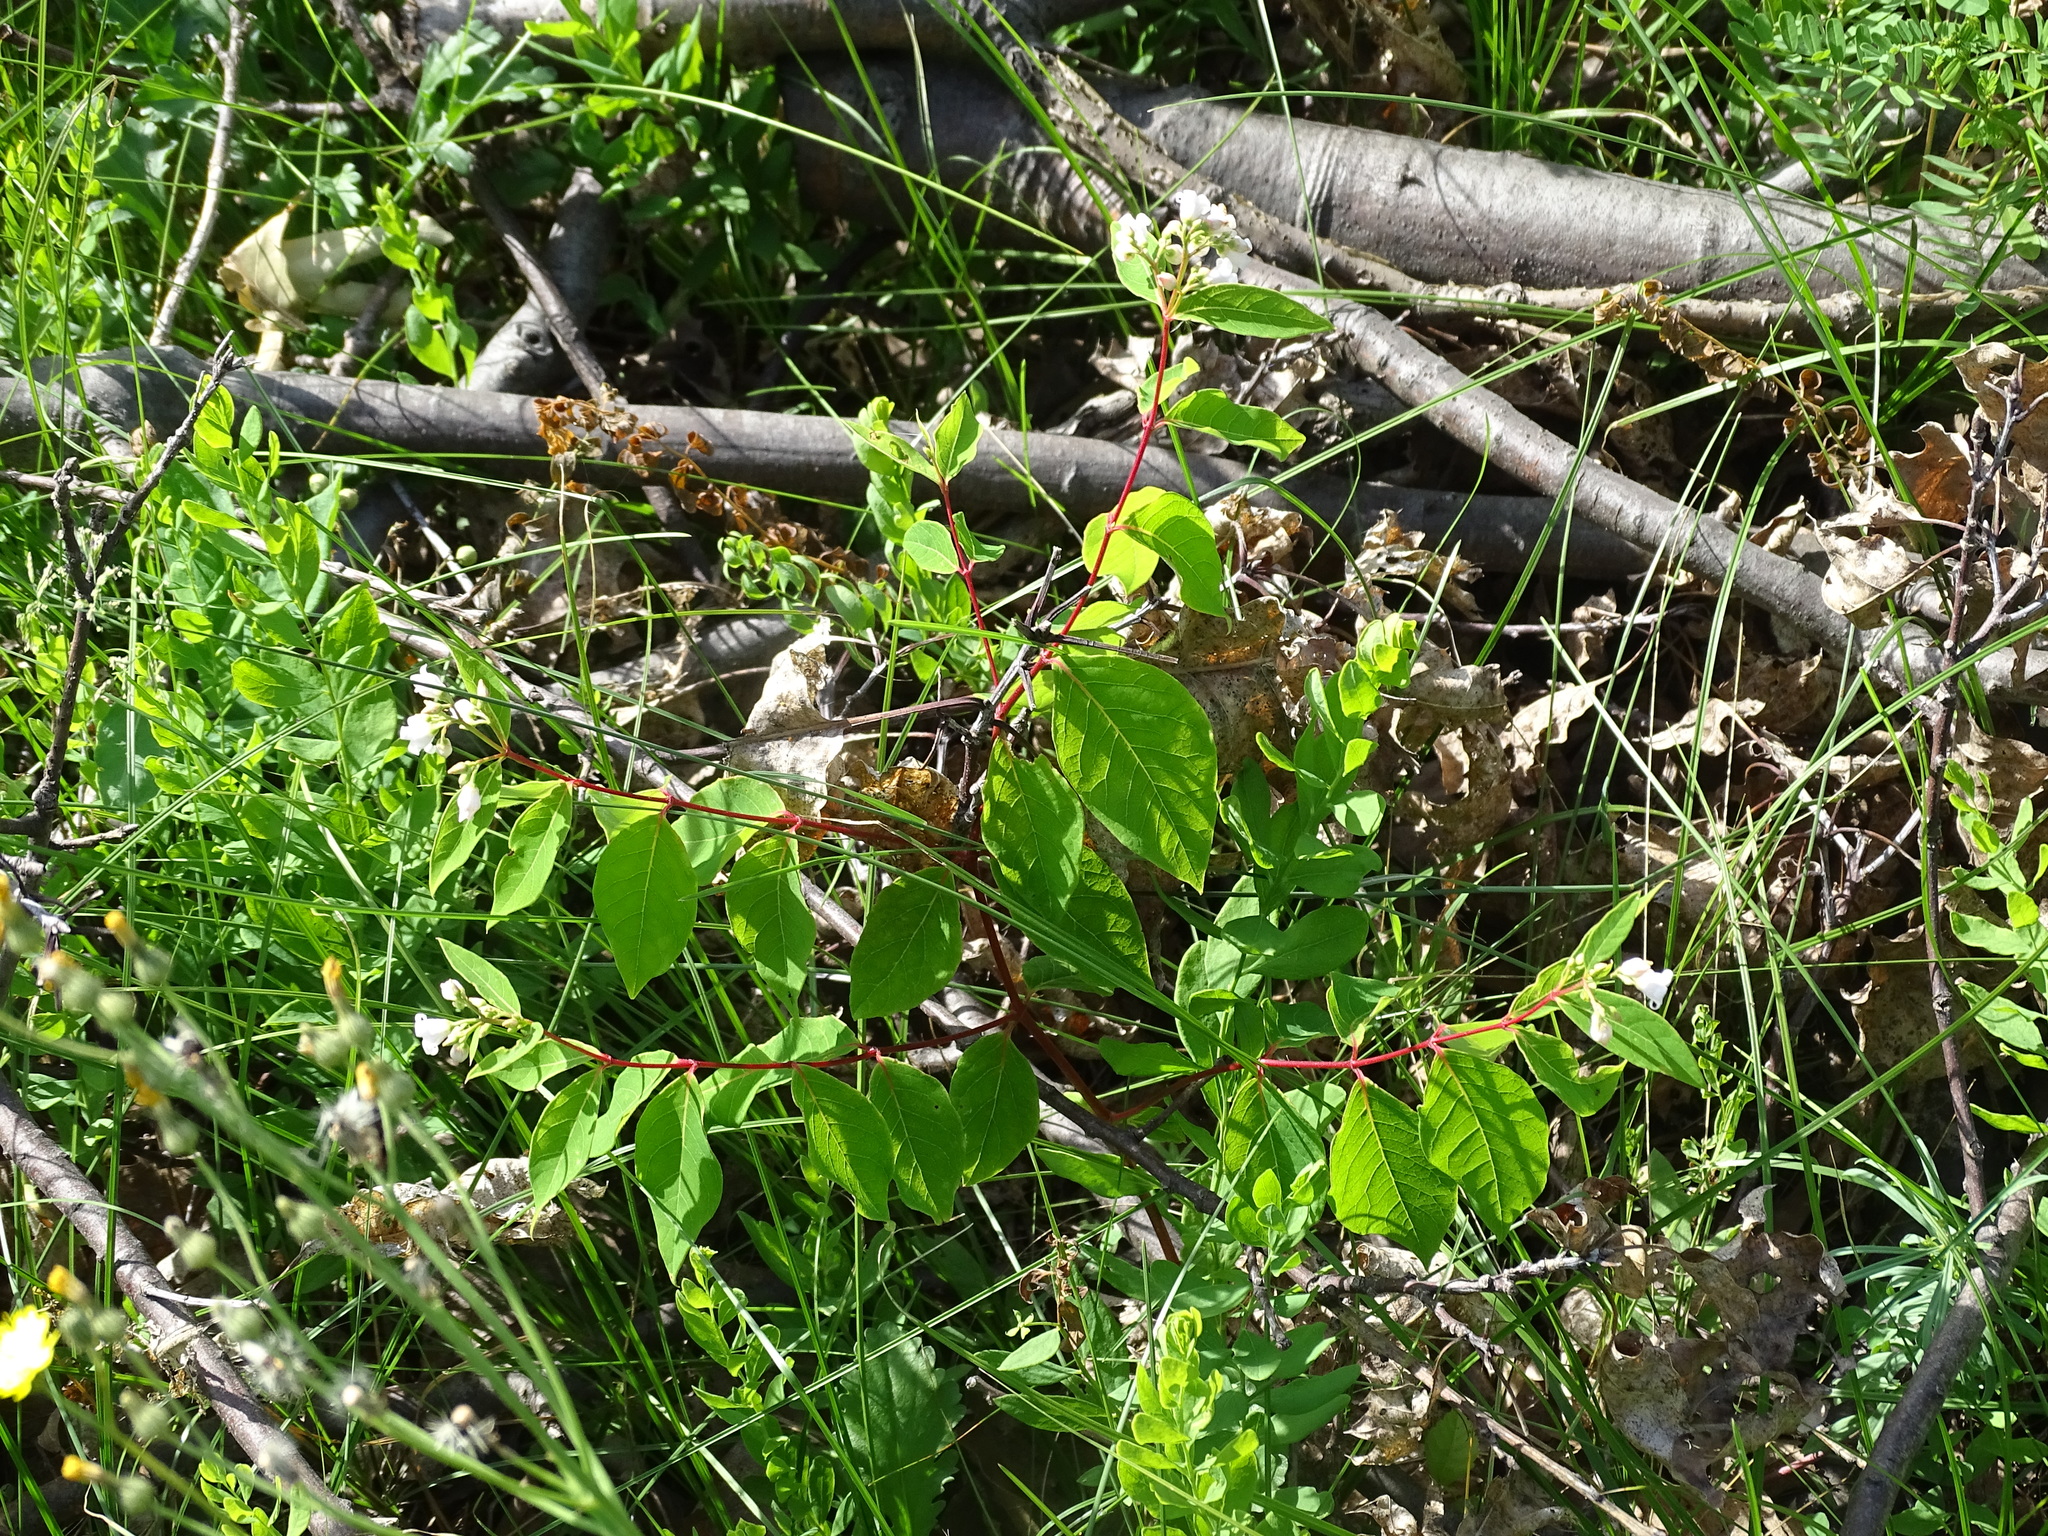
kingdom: Plantae
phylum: Tracheophyta
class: Magnoliopsida
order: Gentianales
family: Apocynaceae
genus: Apocynum
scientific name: Apocynum androsaemifolium
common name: Spreading dogbane
